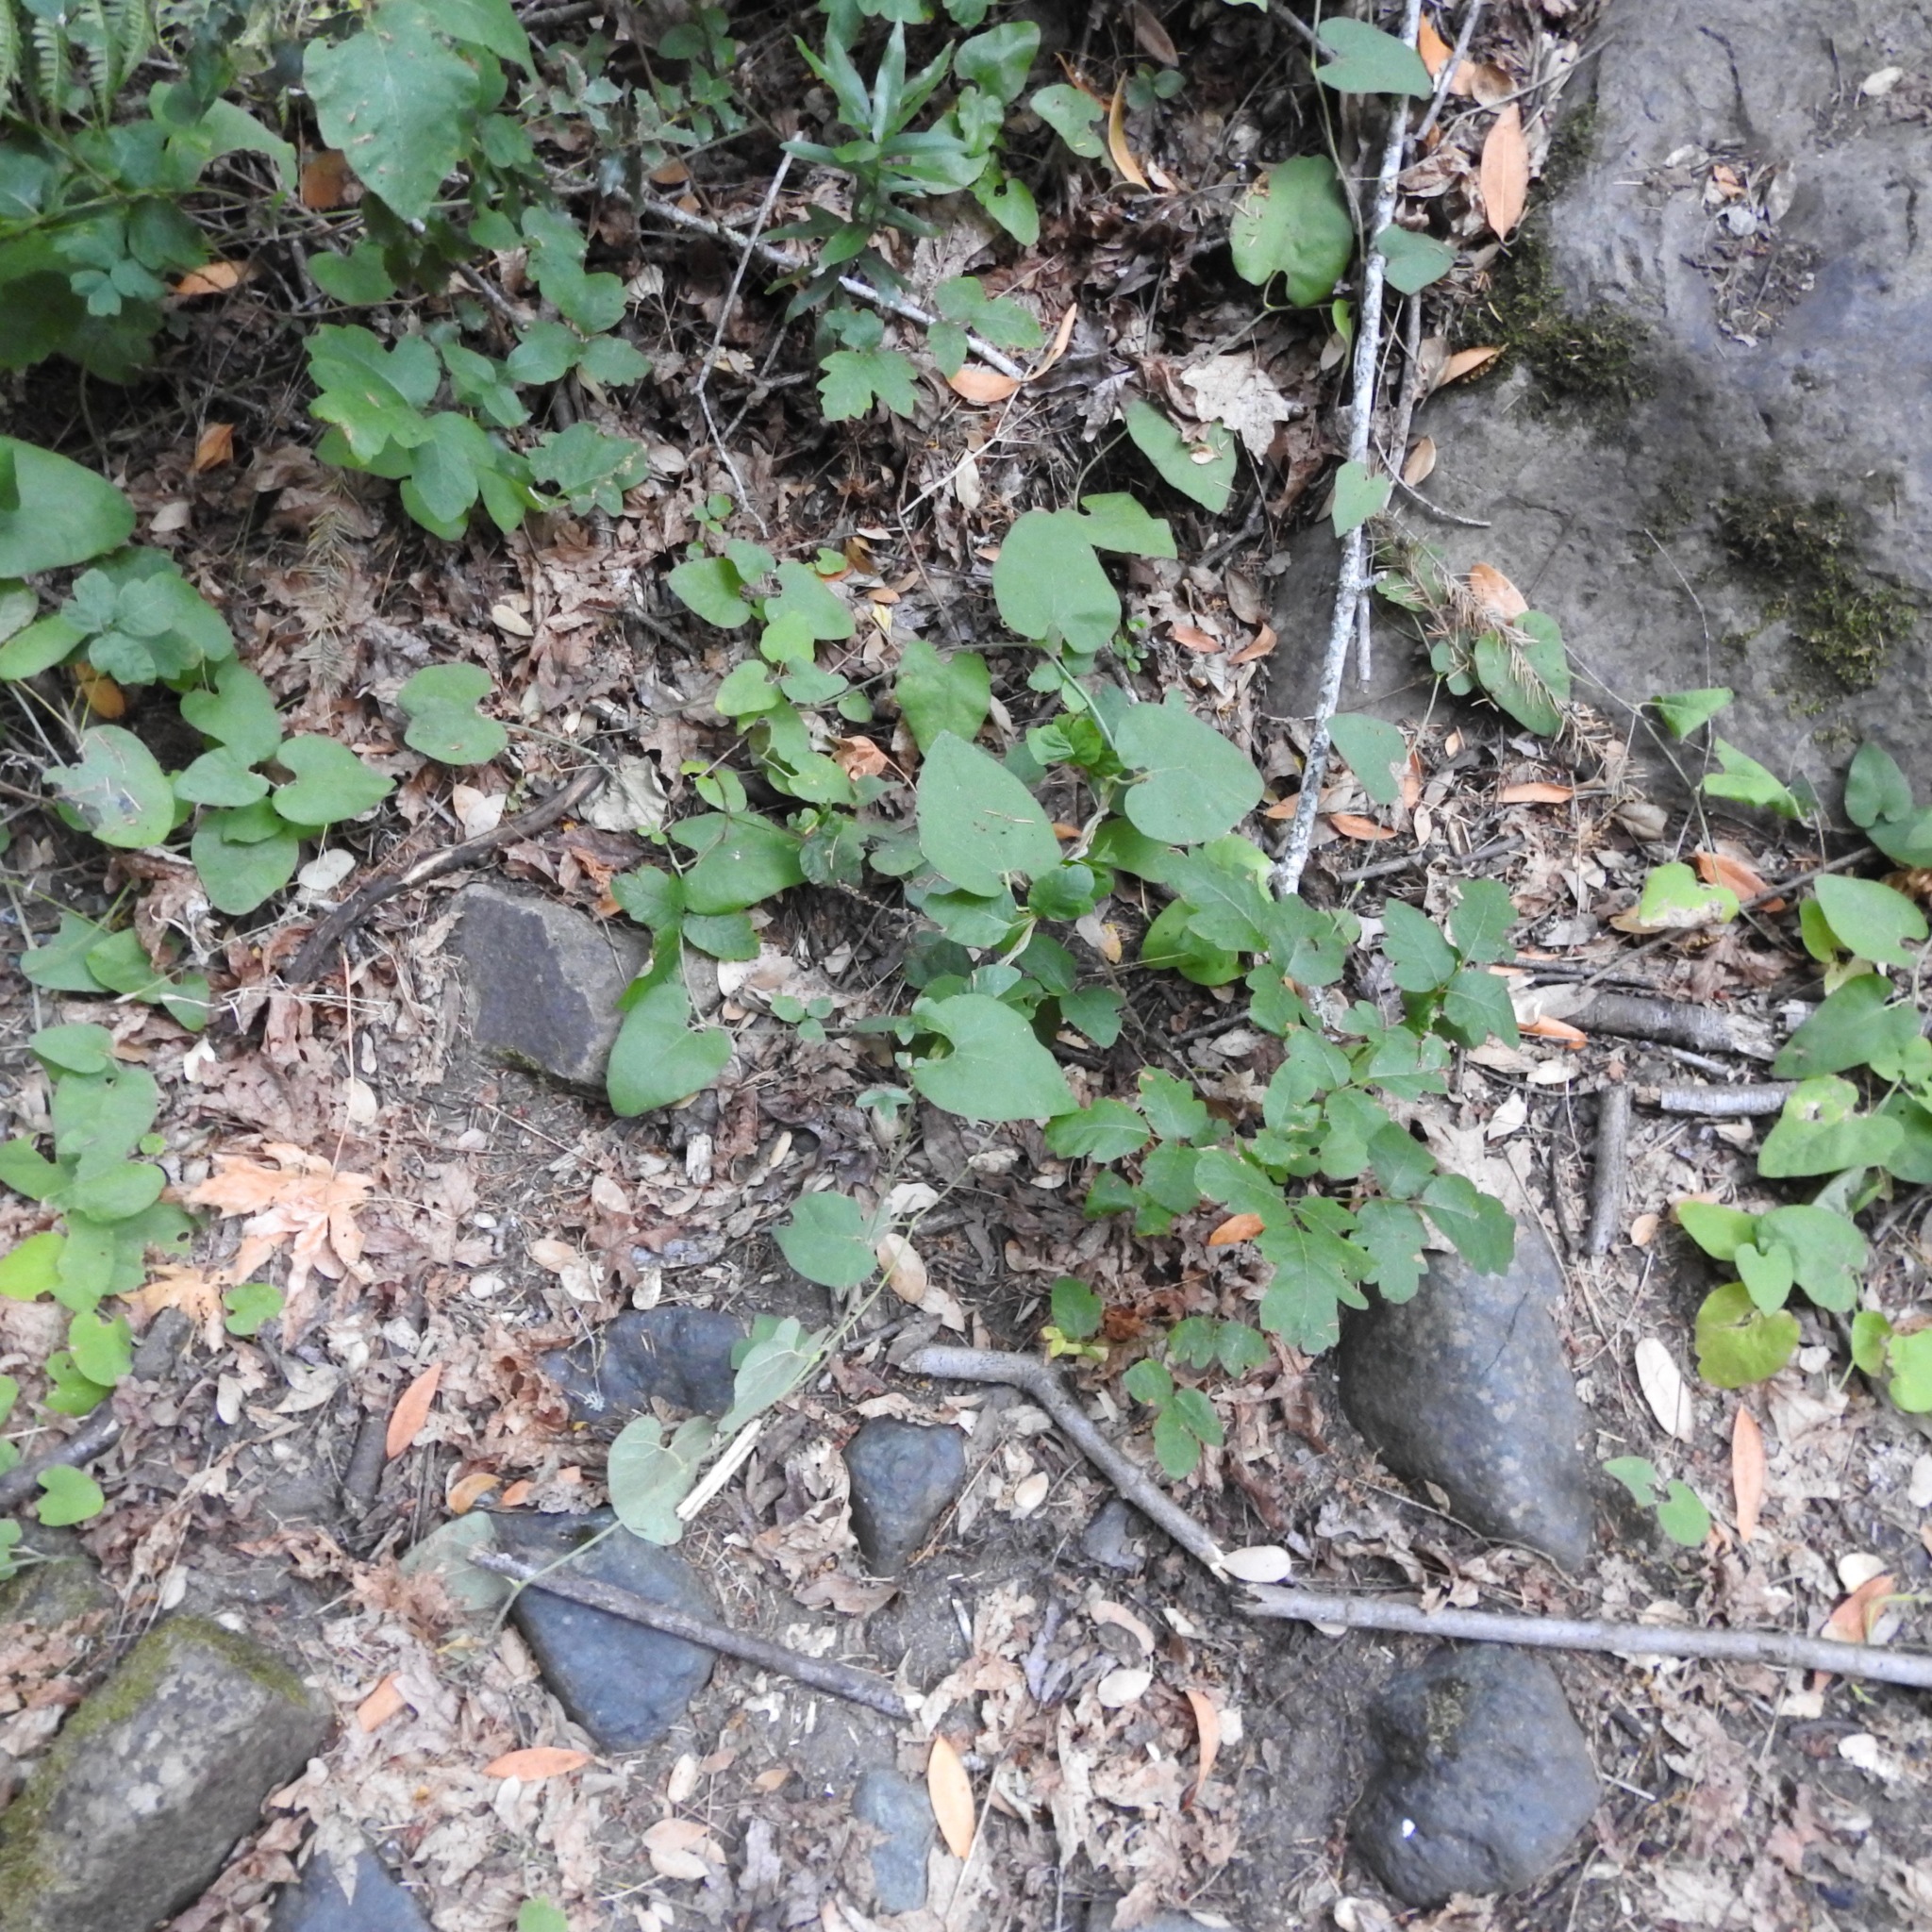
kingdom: Plantae
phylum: Tracheophyta
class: Magnoliopsida
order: Piperales
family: Aristolochiaceae
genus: Isotrema
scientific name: Isotrema californicum
